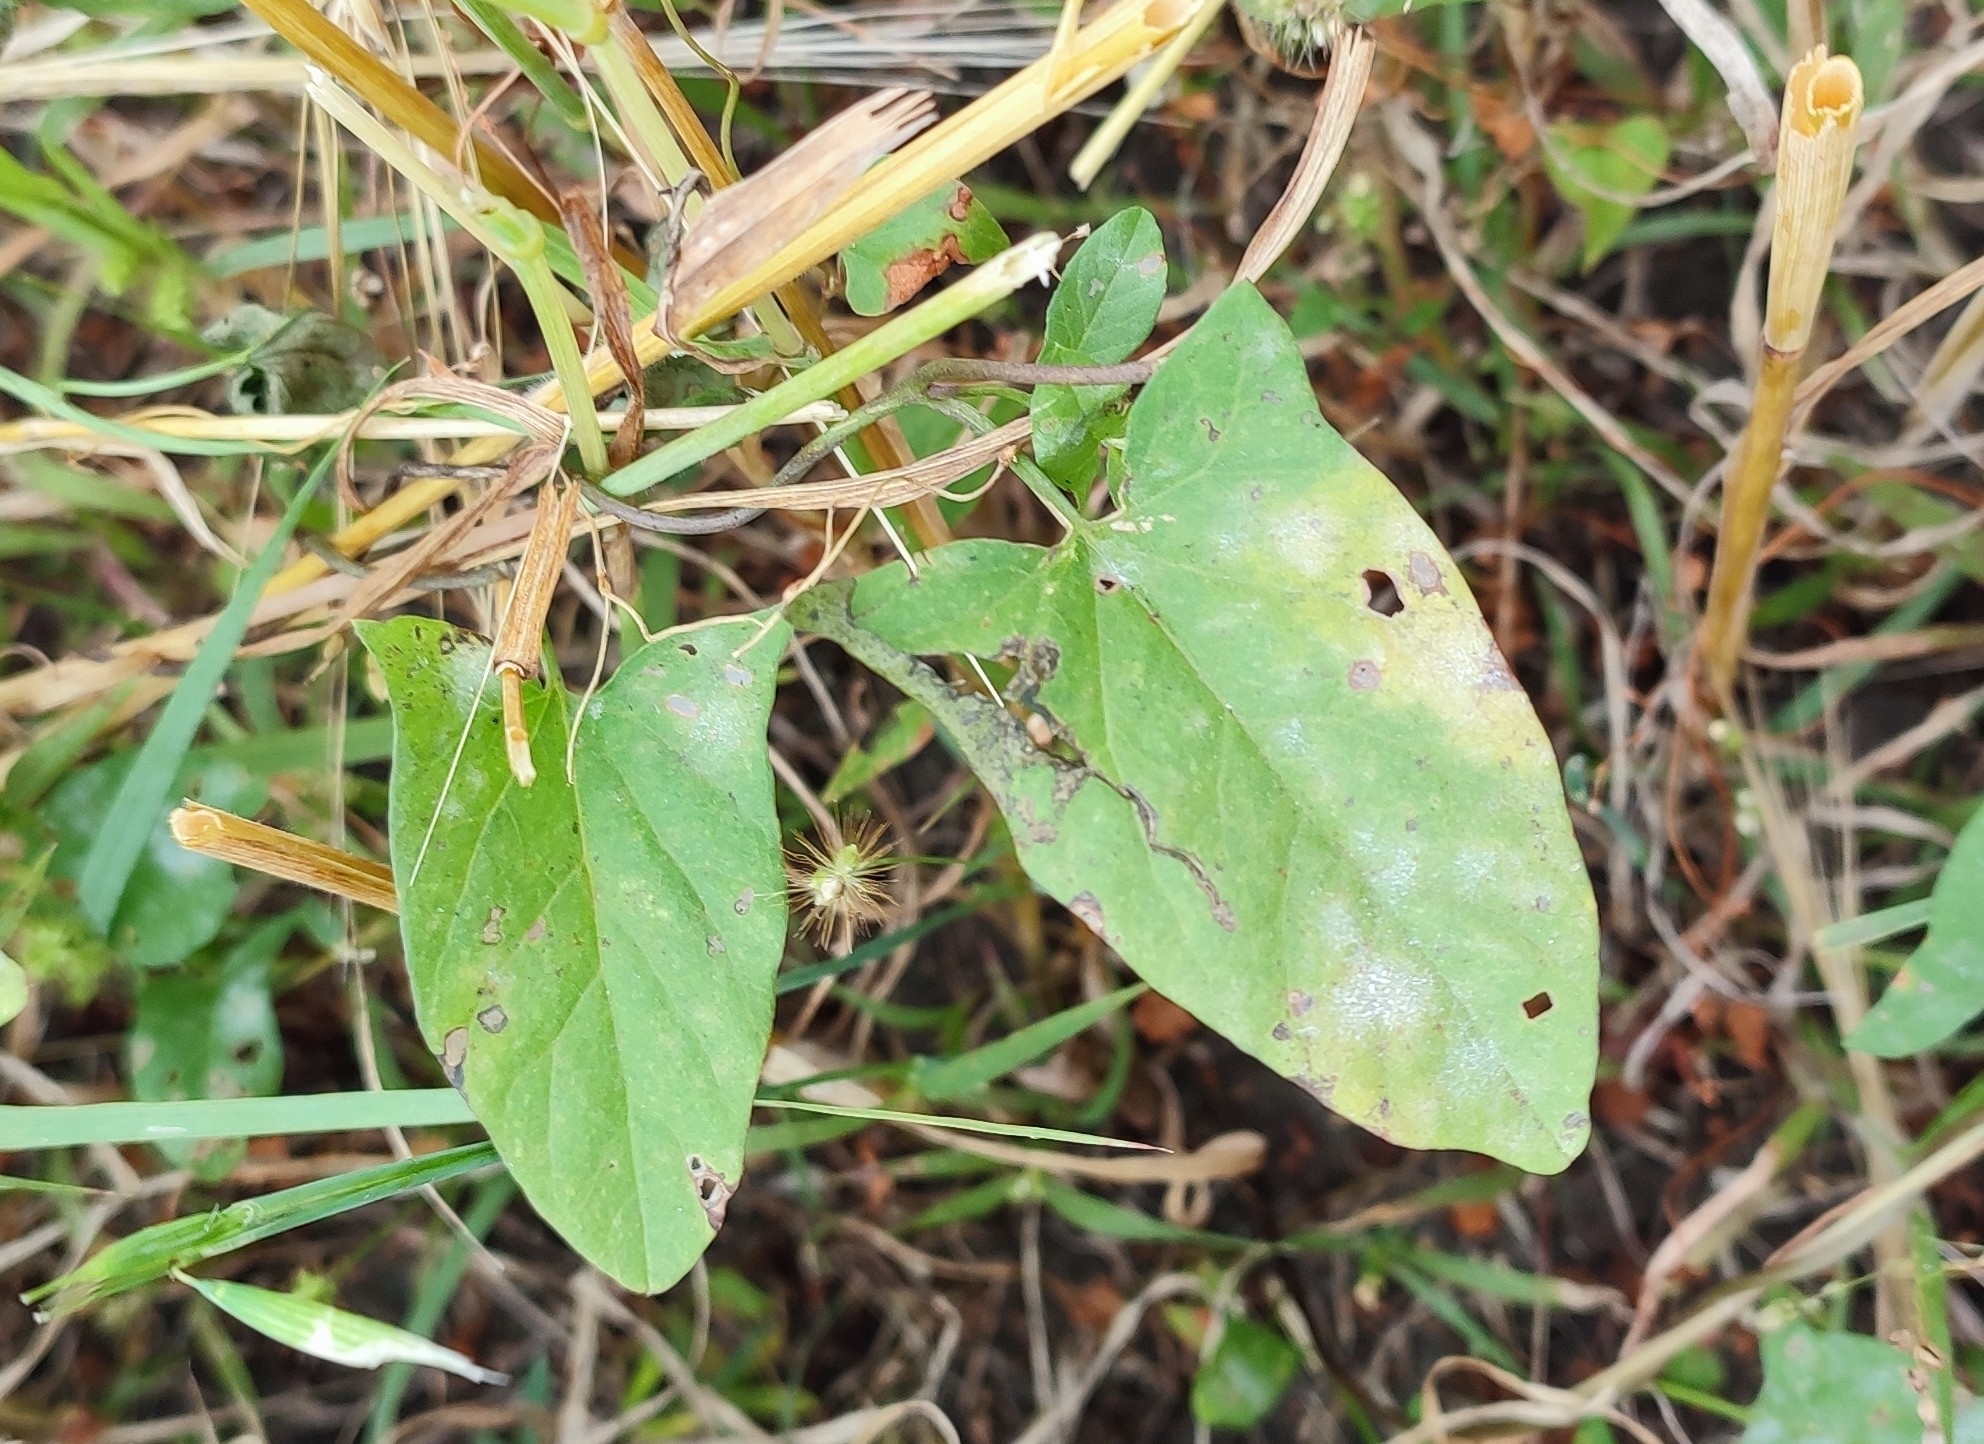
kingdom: Plantae
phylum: Tracheophyta
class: Magnoliopsida
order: Solanales
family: Convolvulaceae
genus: Convolvulus
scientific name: Convolvulus arvensis
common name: Field bindweed
